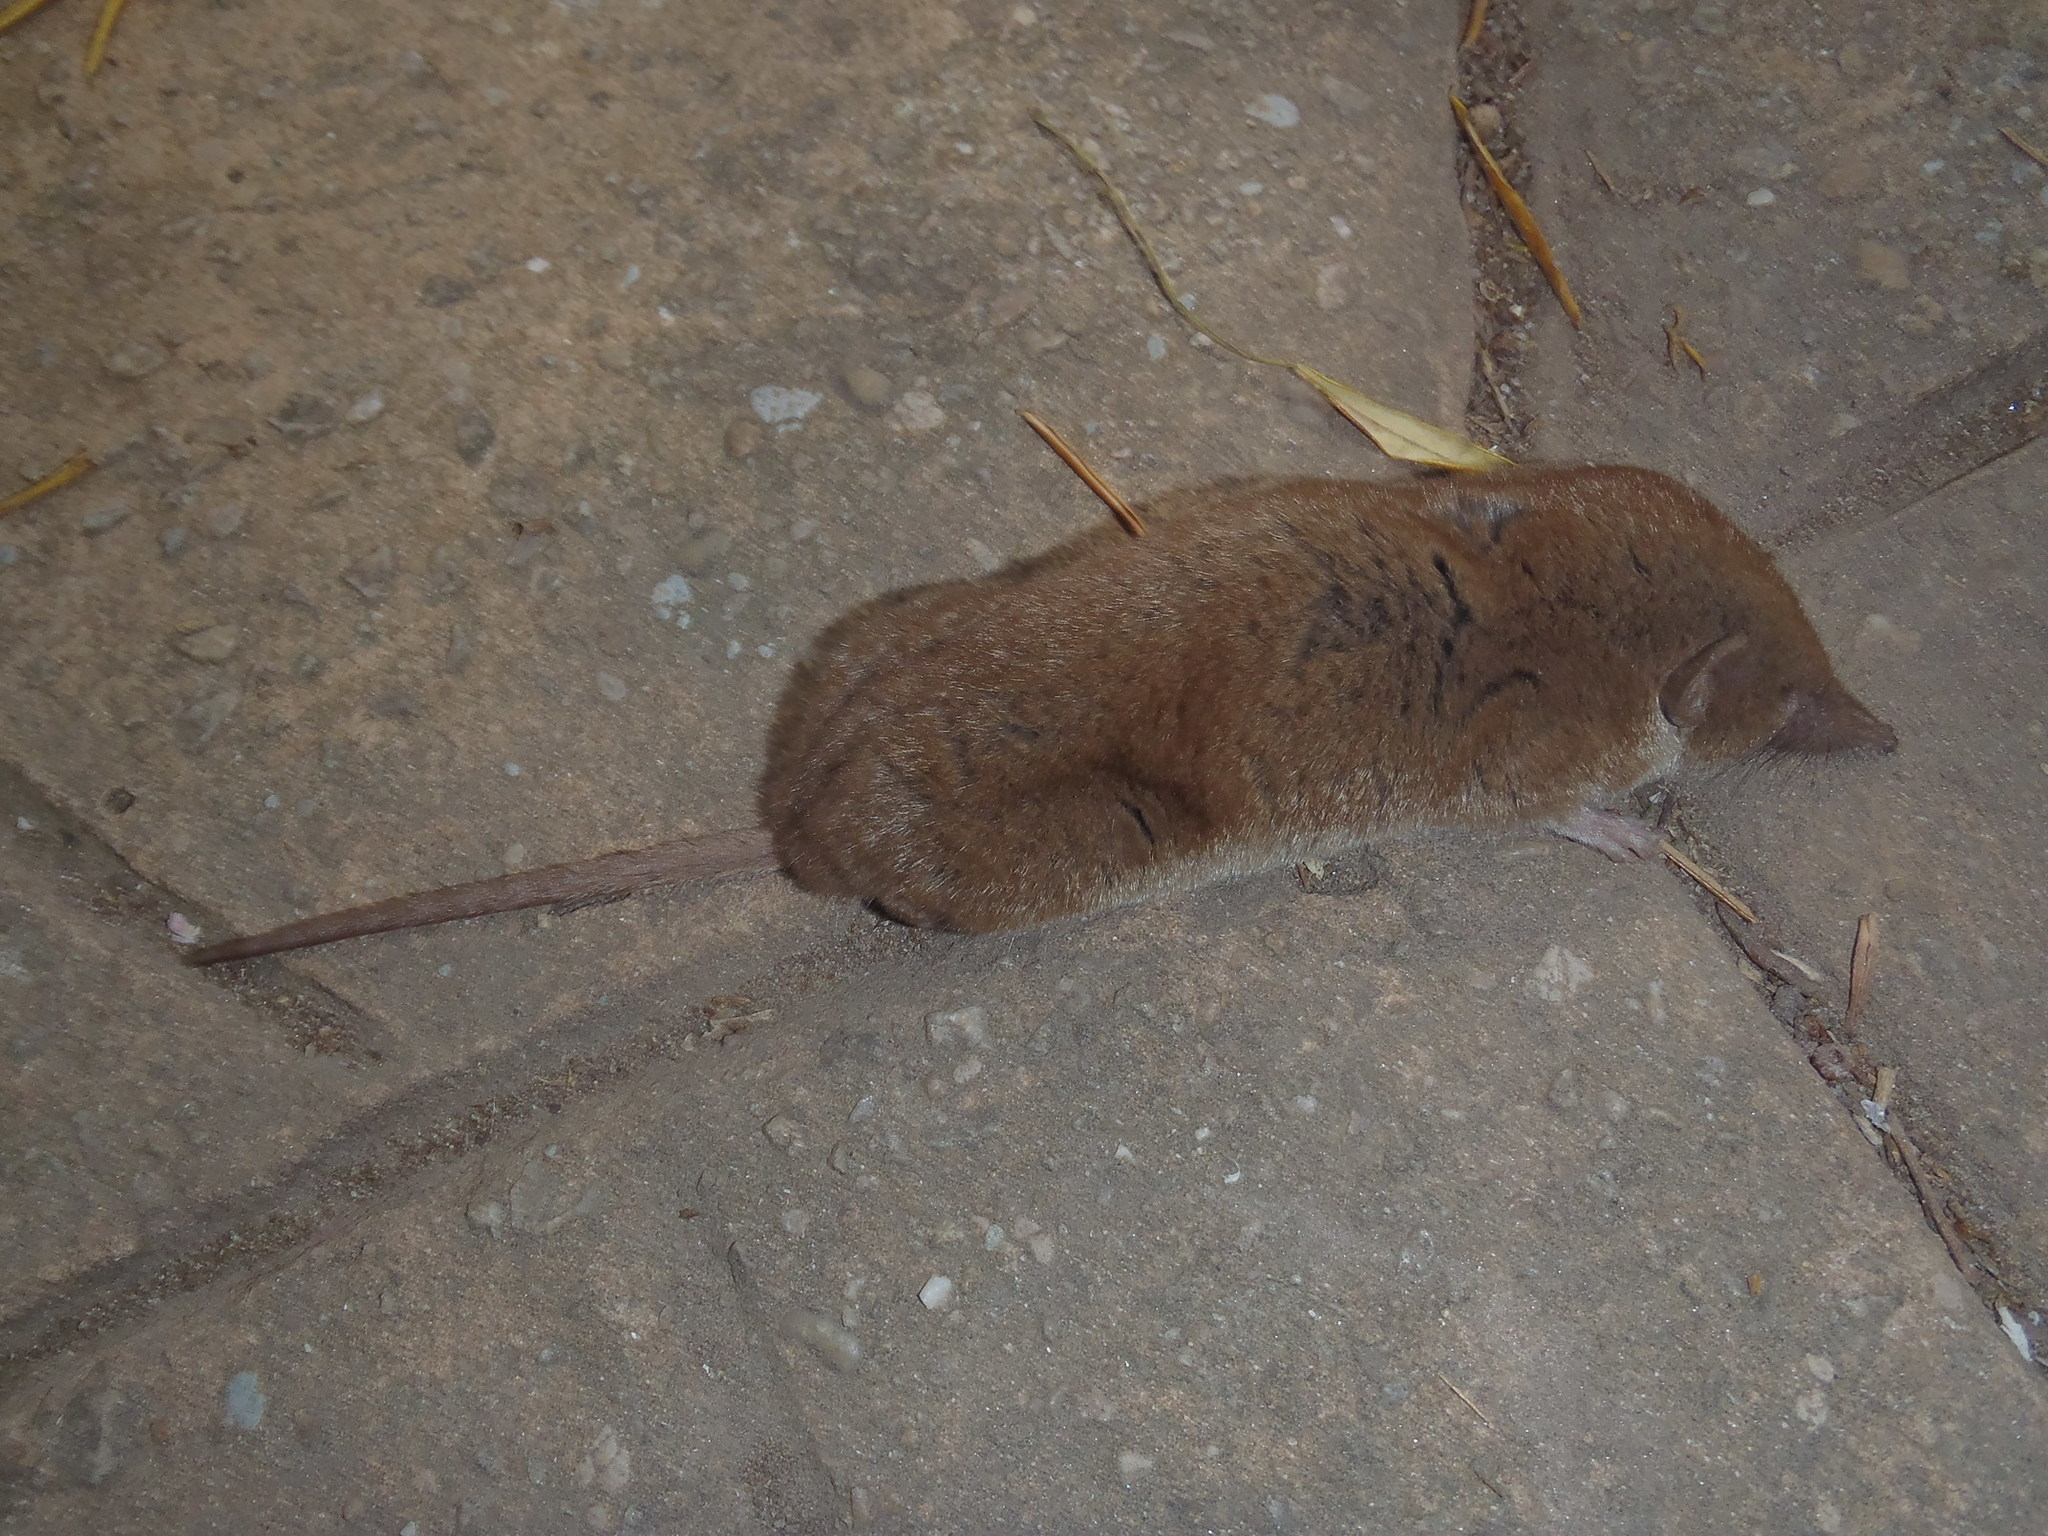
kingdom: Animalia
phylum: Chordata
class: Mammalia
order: Soricomorpha
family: Soricidae
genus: Crocidura
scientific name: Crocidura cyanea
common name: Reddish-gray musk shrew
